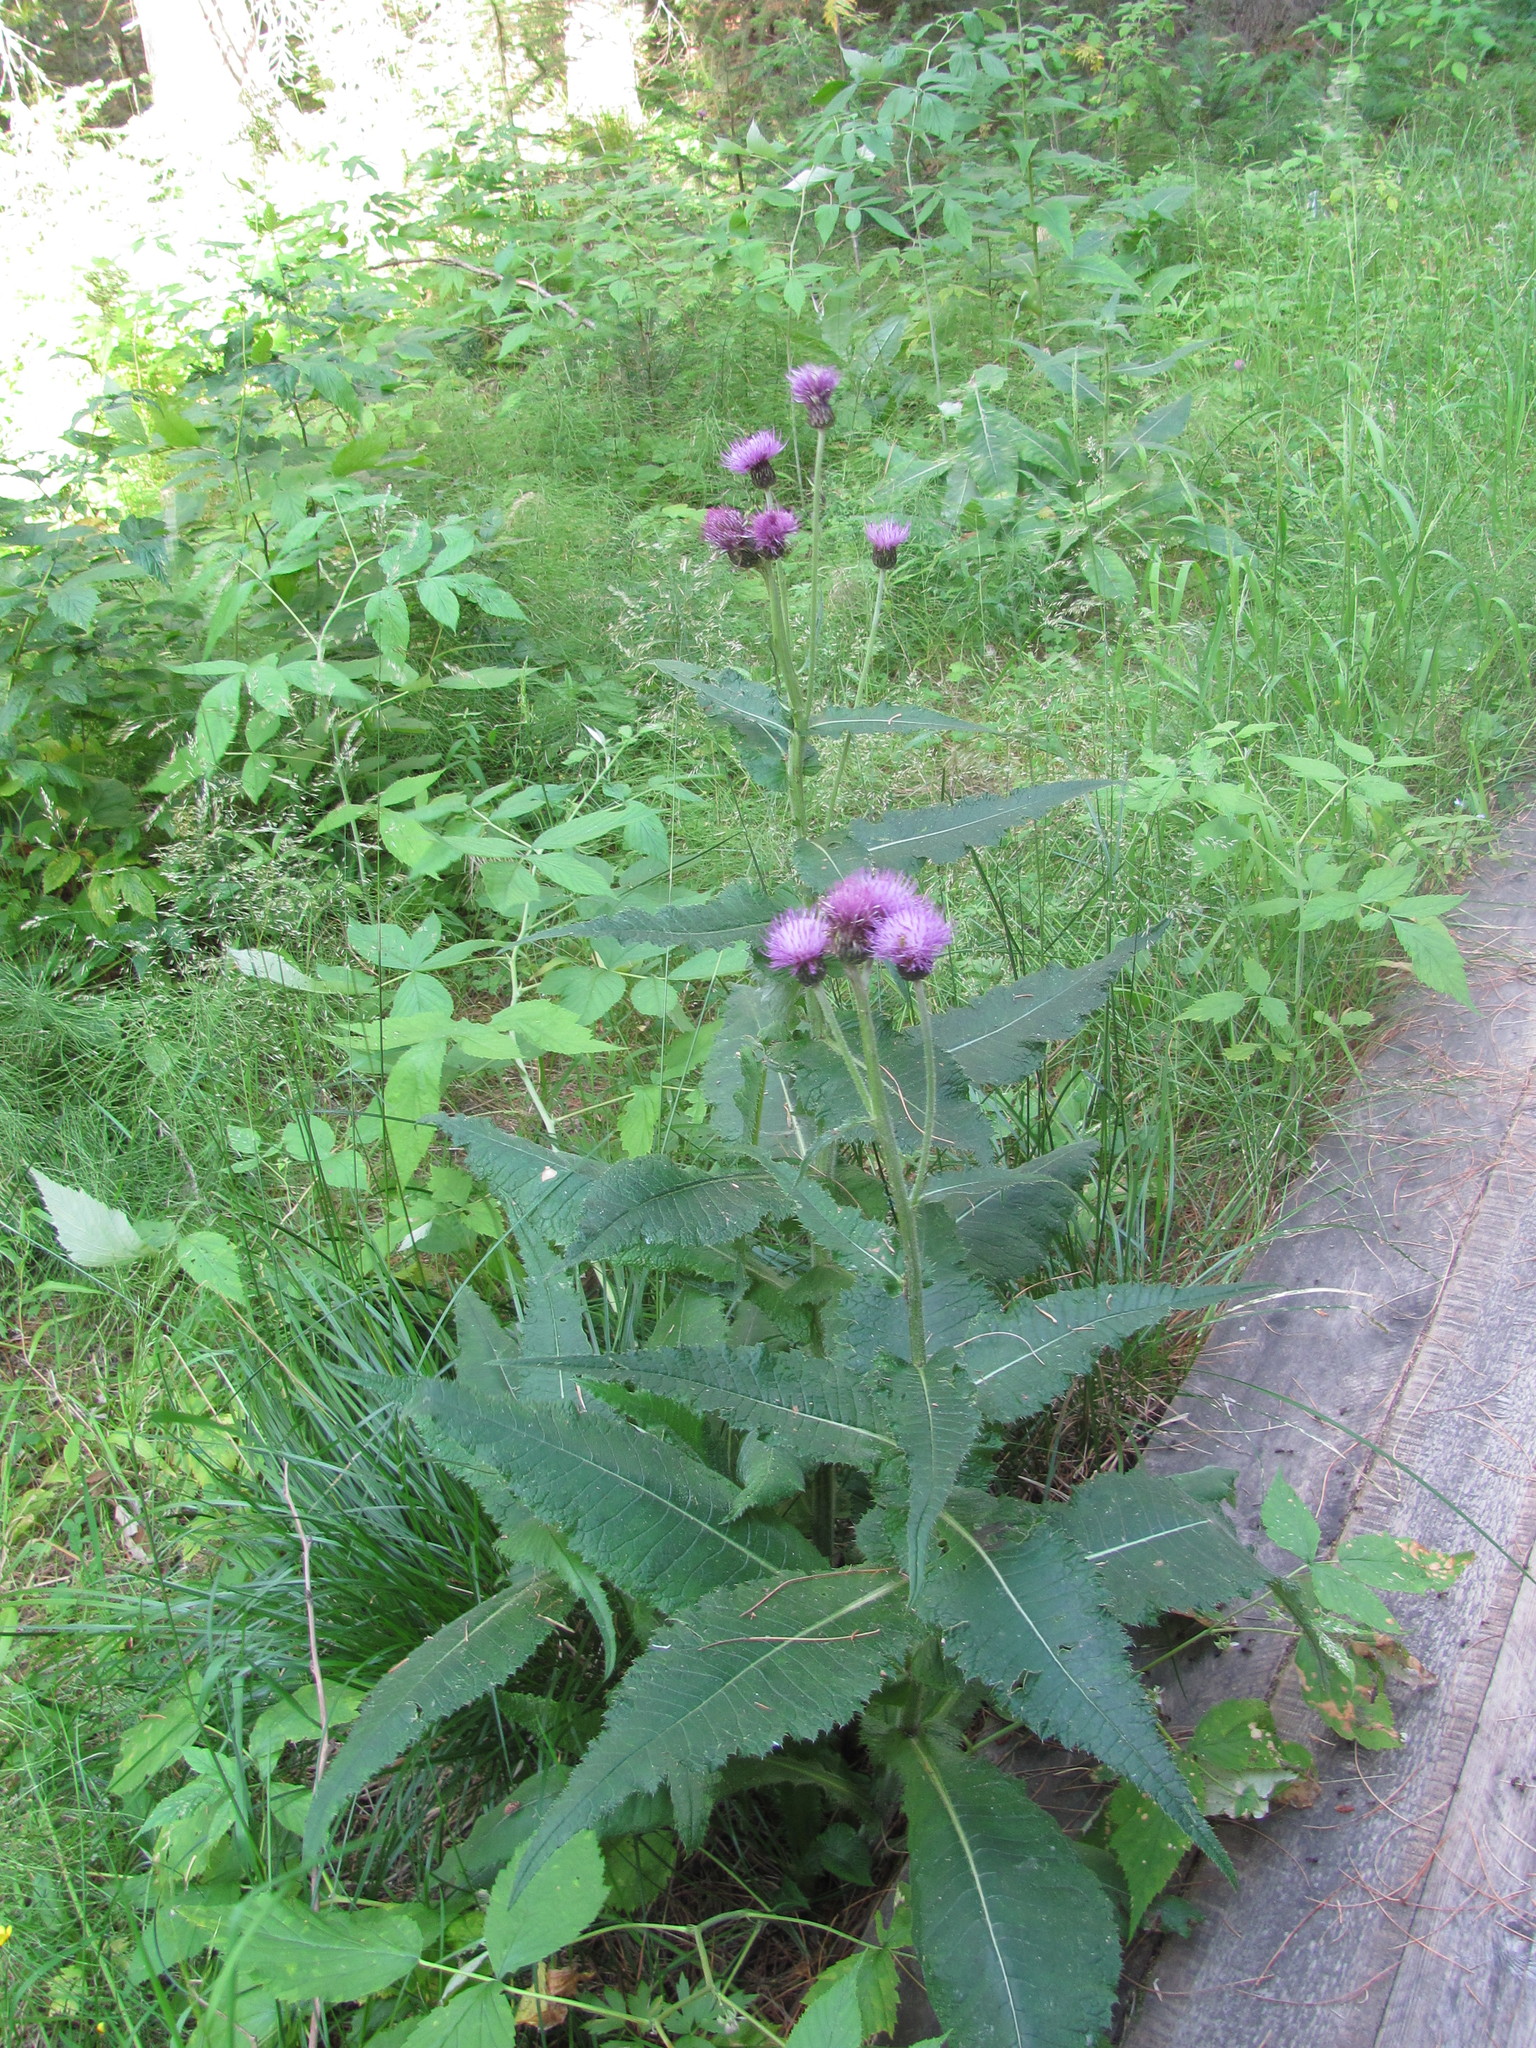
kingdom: Plantae
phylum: Tracheophyta
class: Magnoliopsida
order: Asterales
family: Asteraceae
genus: Cirsium
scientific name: Cirsium heterophyllum
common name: Melancholy thistle
